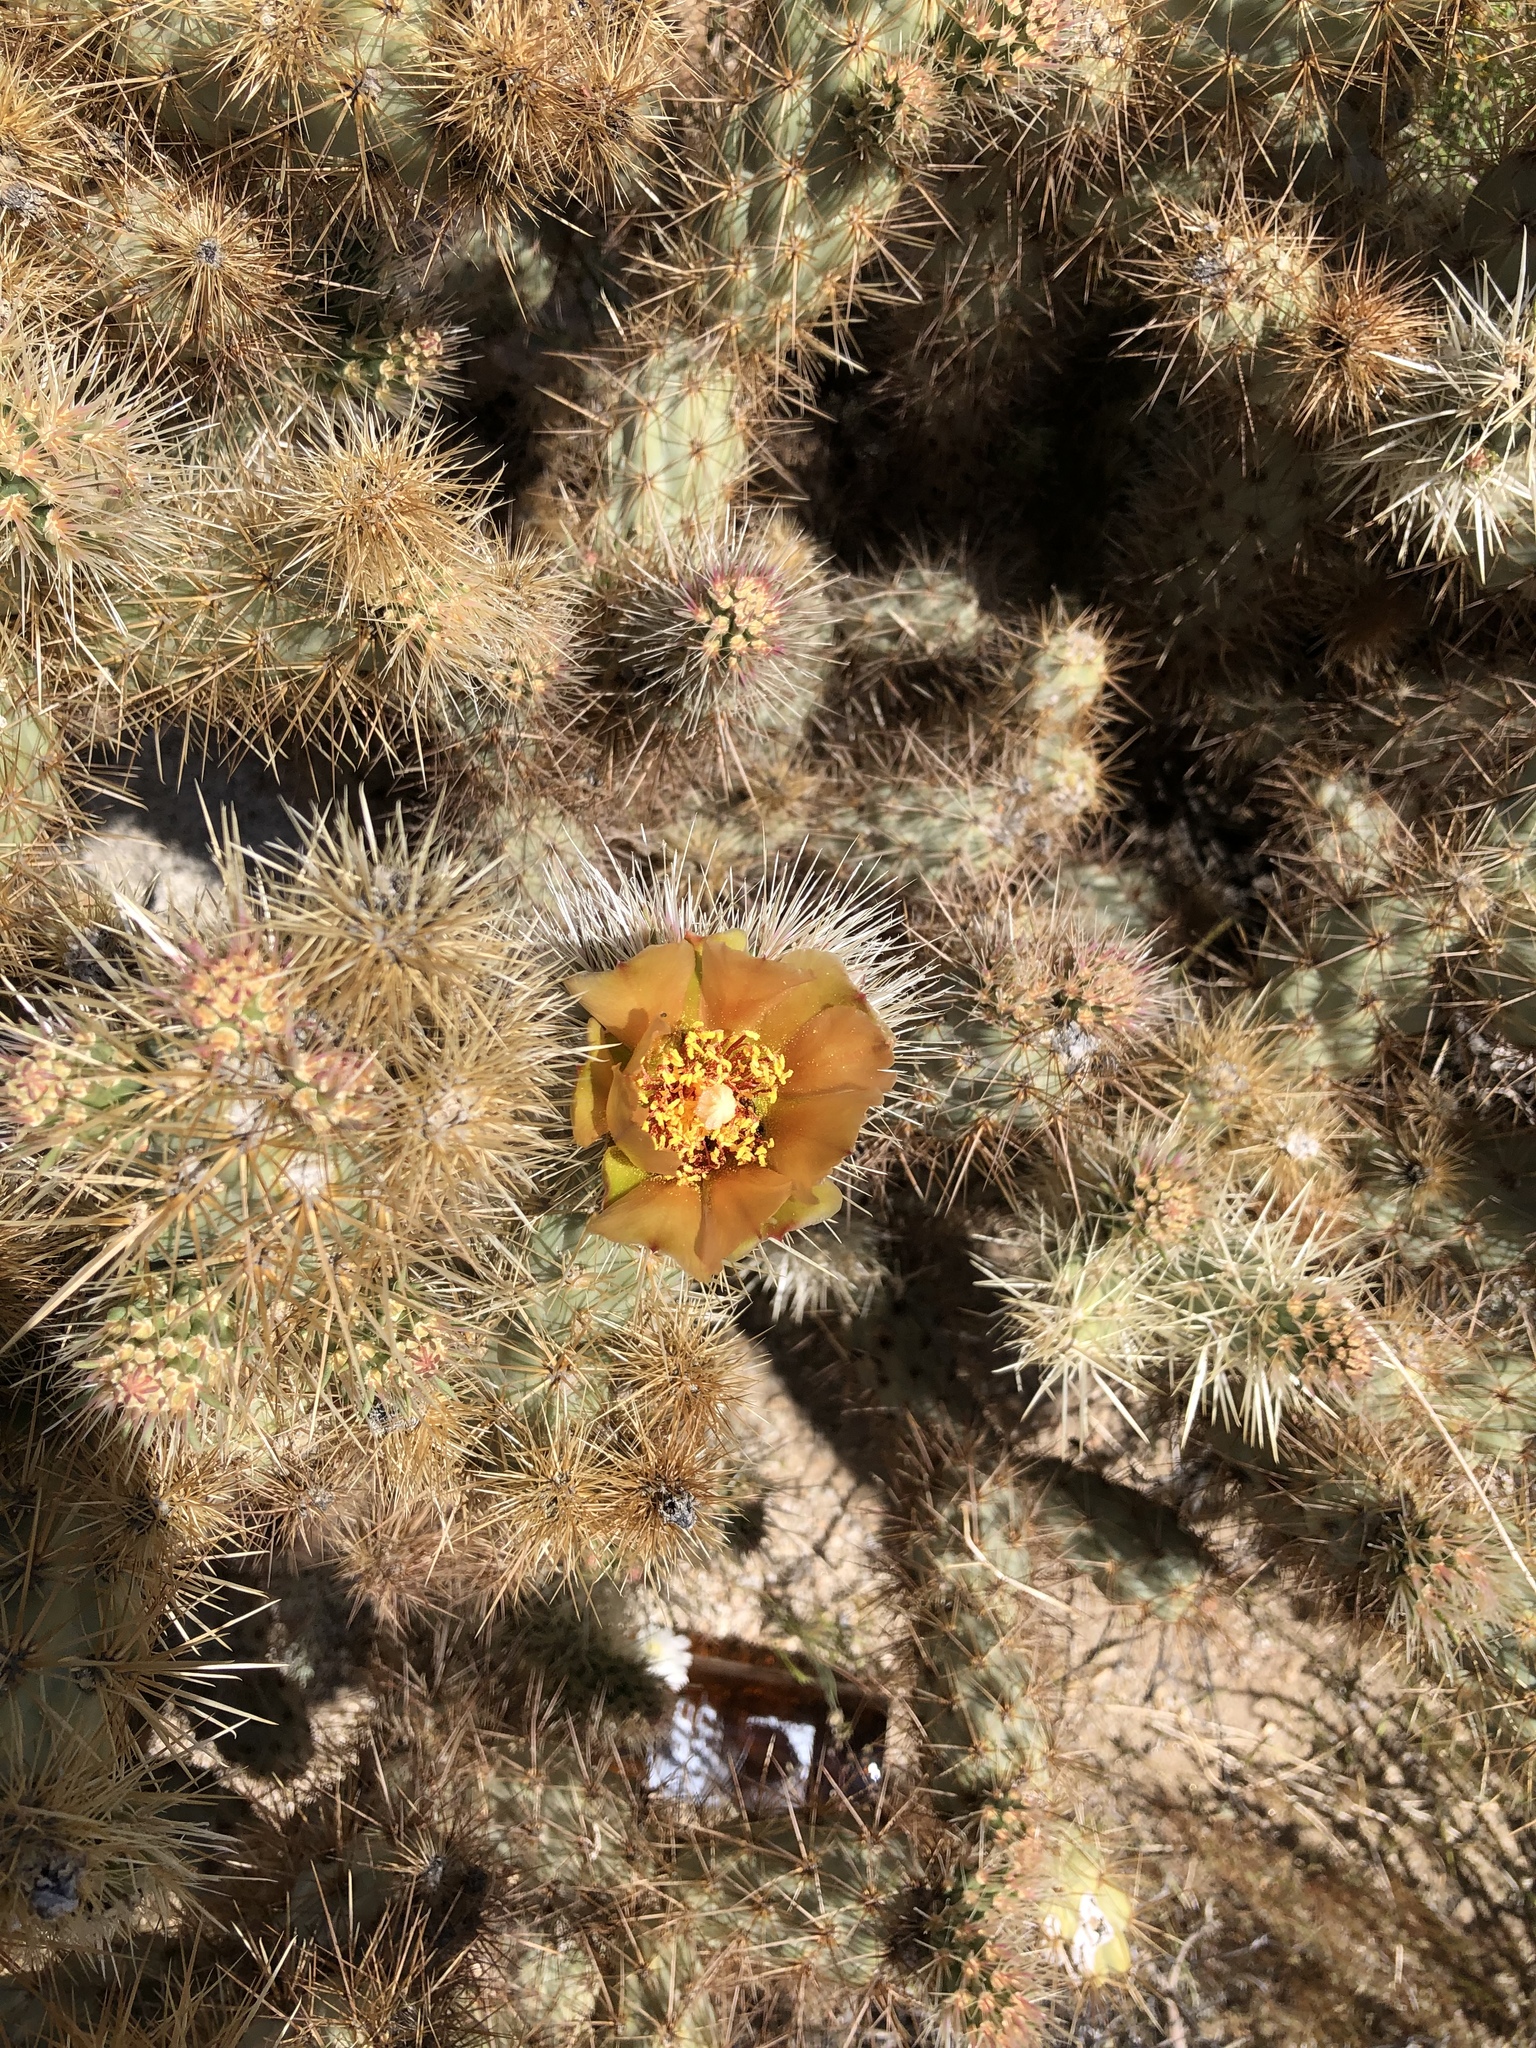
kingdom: Plantae
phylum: Tracheophyta
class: Magnoliopsida
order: Caryophyllales
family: Cactaceae
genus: Cylindropuntia
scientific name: Cylindropuntia wolfii
